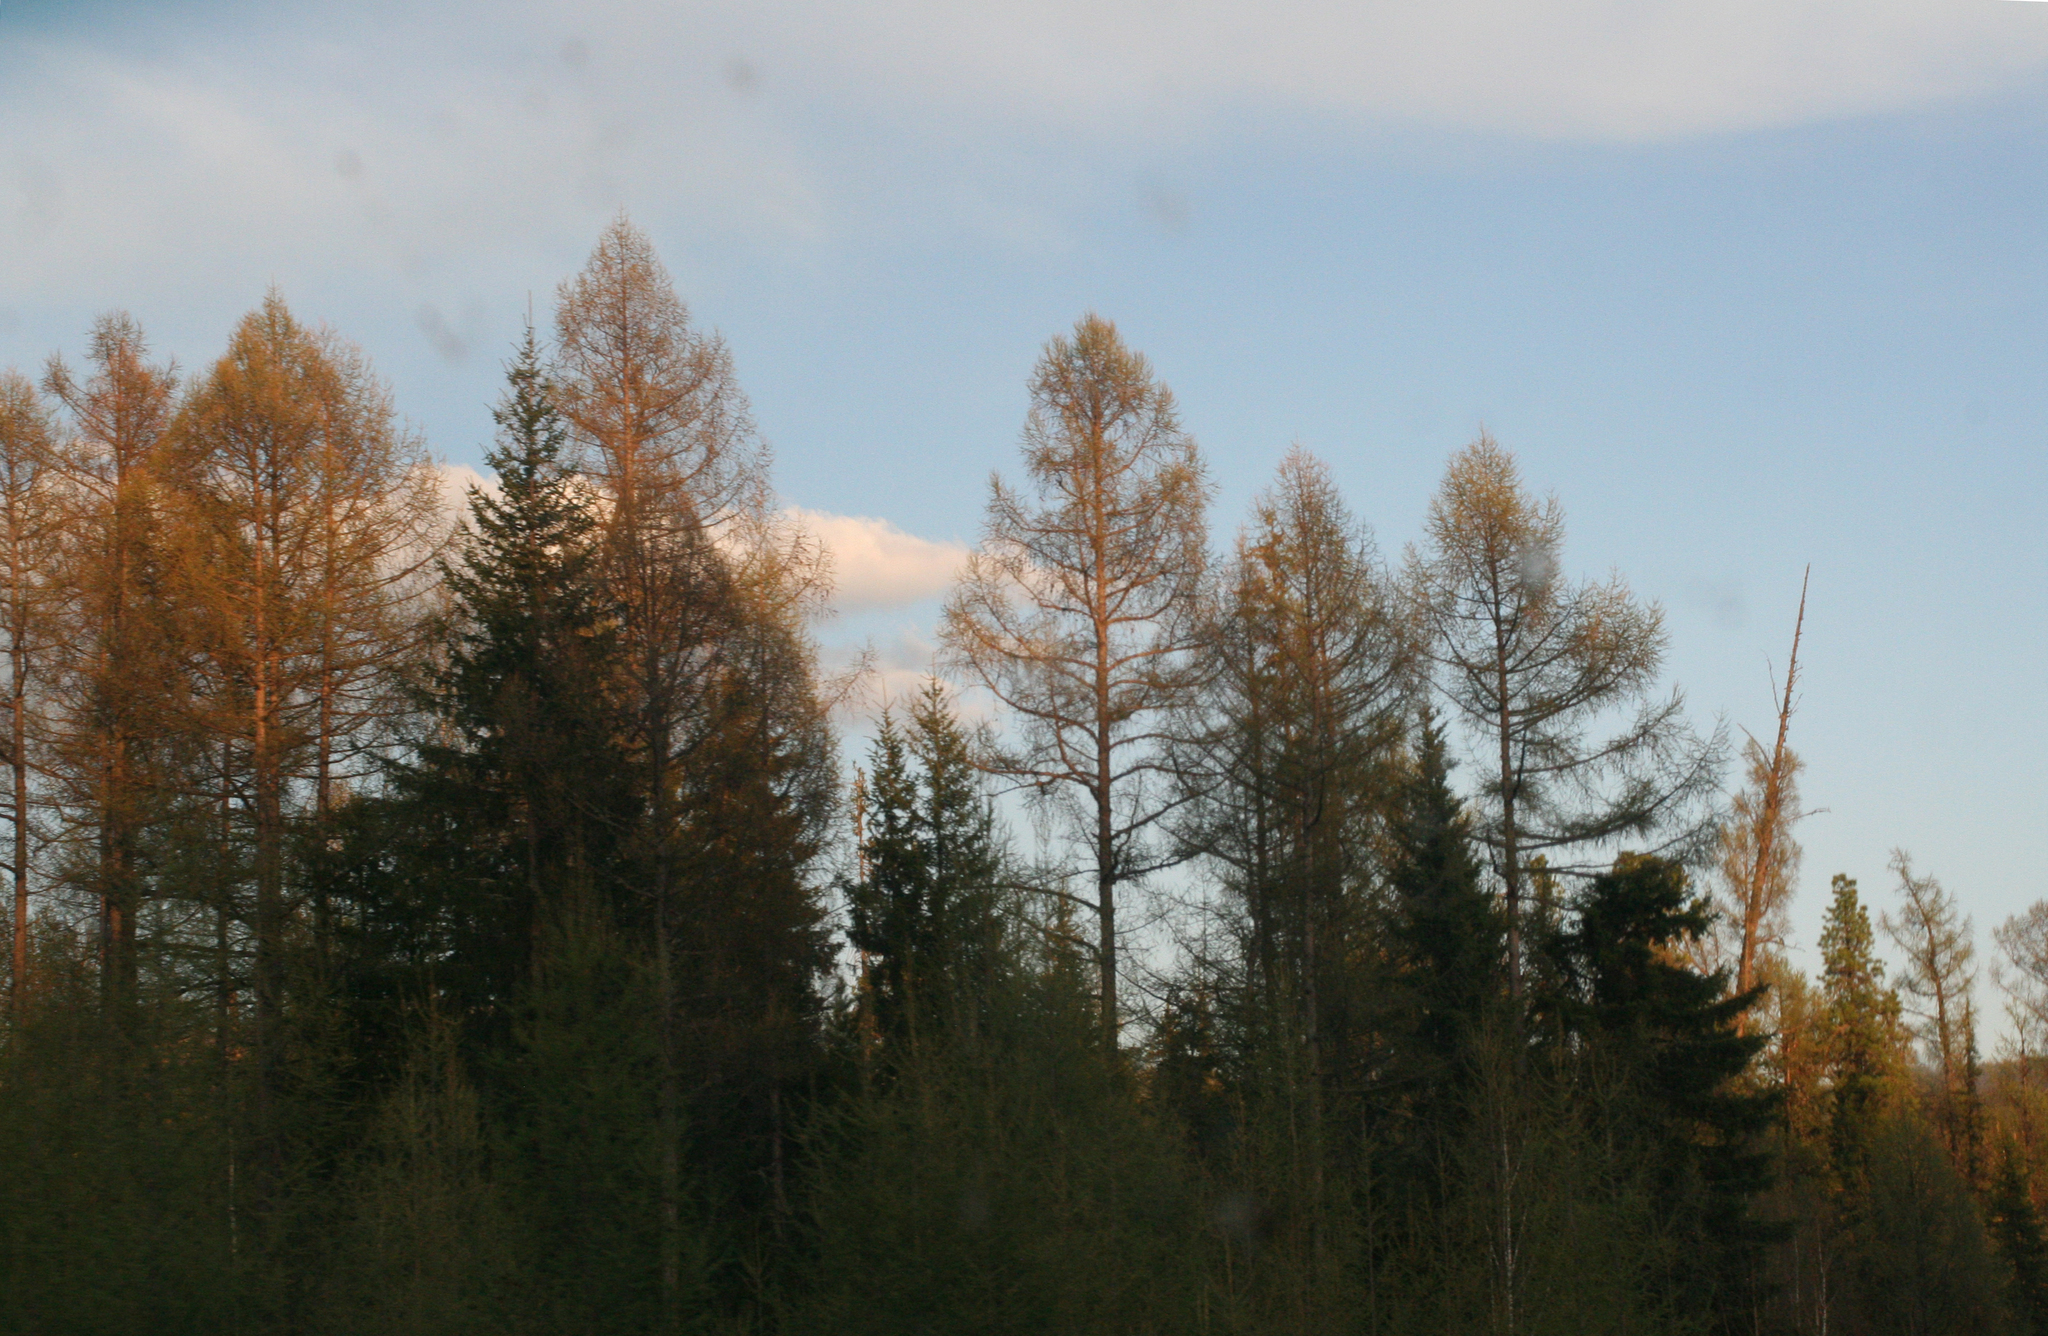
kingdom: Plantae
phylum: Tracheophyta
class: Pinopsida
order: Pinales
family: Pinaceae
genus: Larix
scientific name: Larix sibirica
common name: Siberian larch
